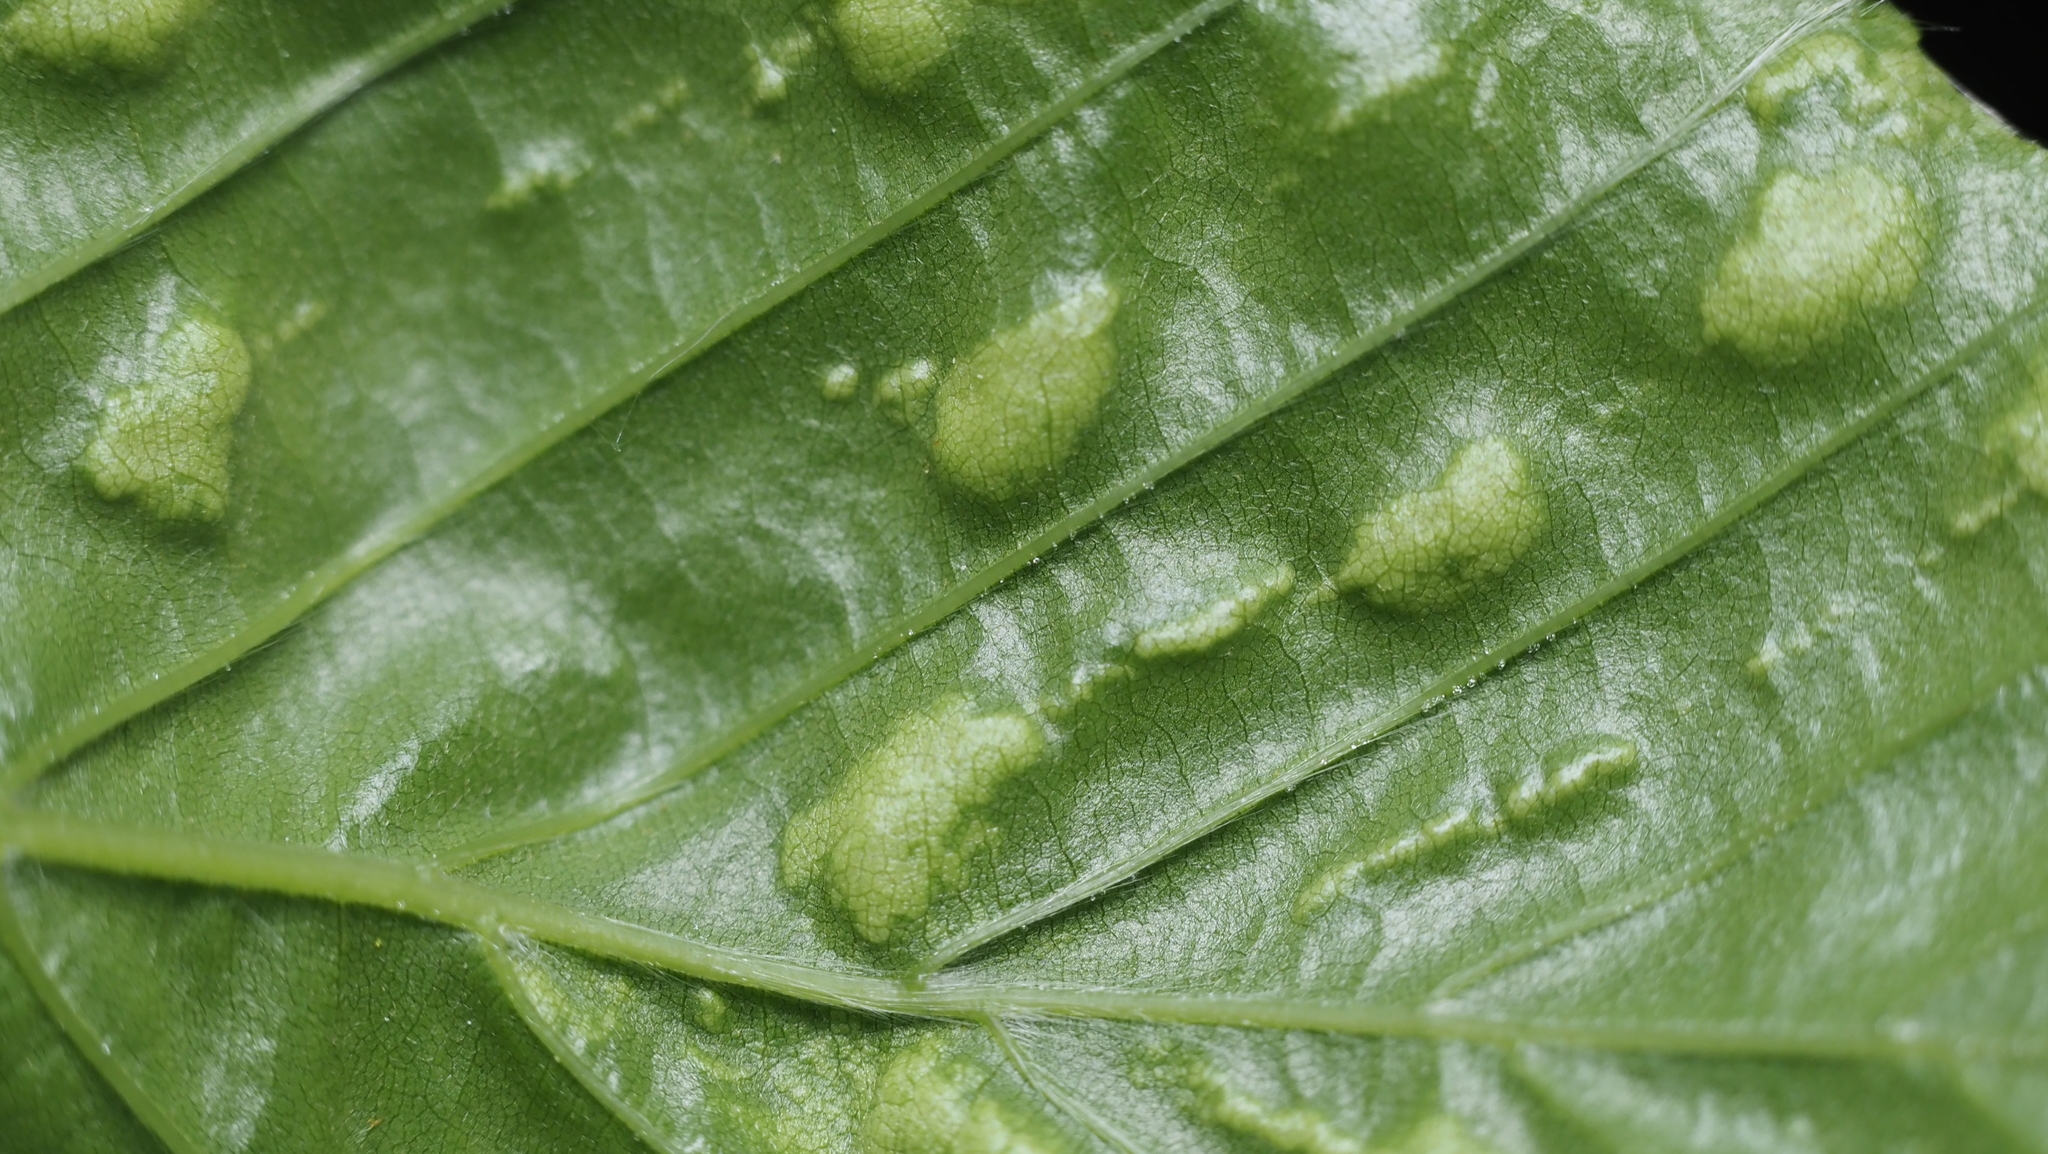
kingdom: Animalia
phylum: Arthropoda
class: Arachnida
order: Trombidiformes
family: Eriophyidae
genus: Acalitus
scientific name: Acalitus
